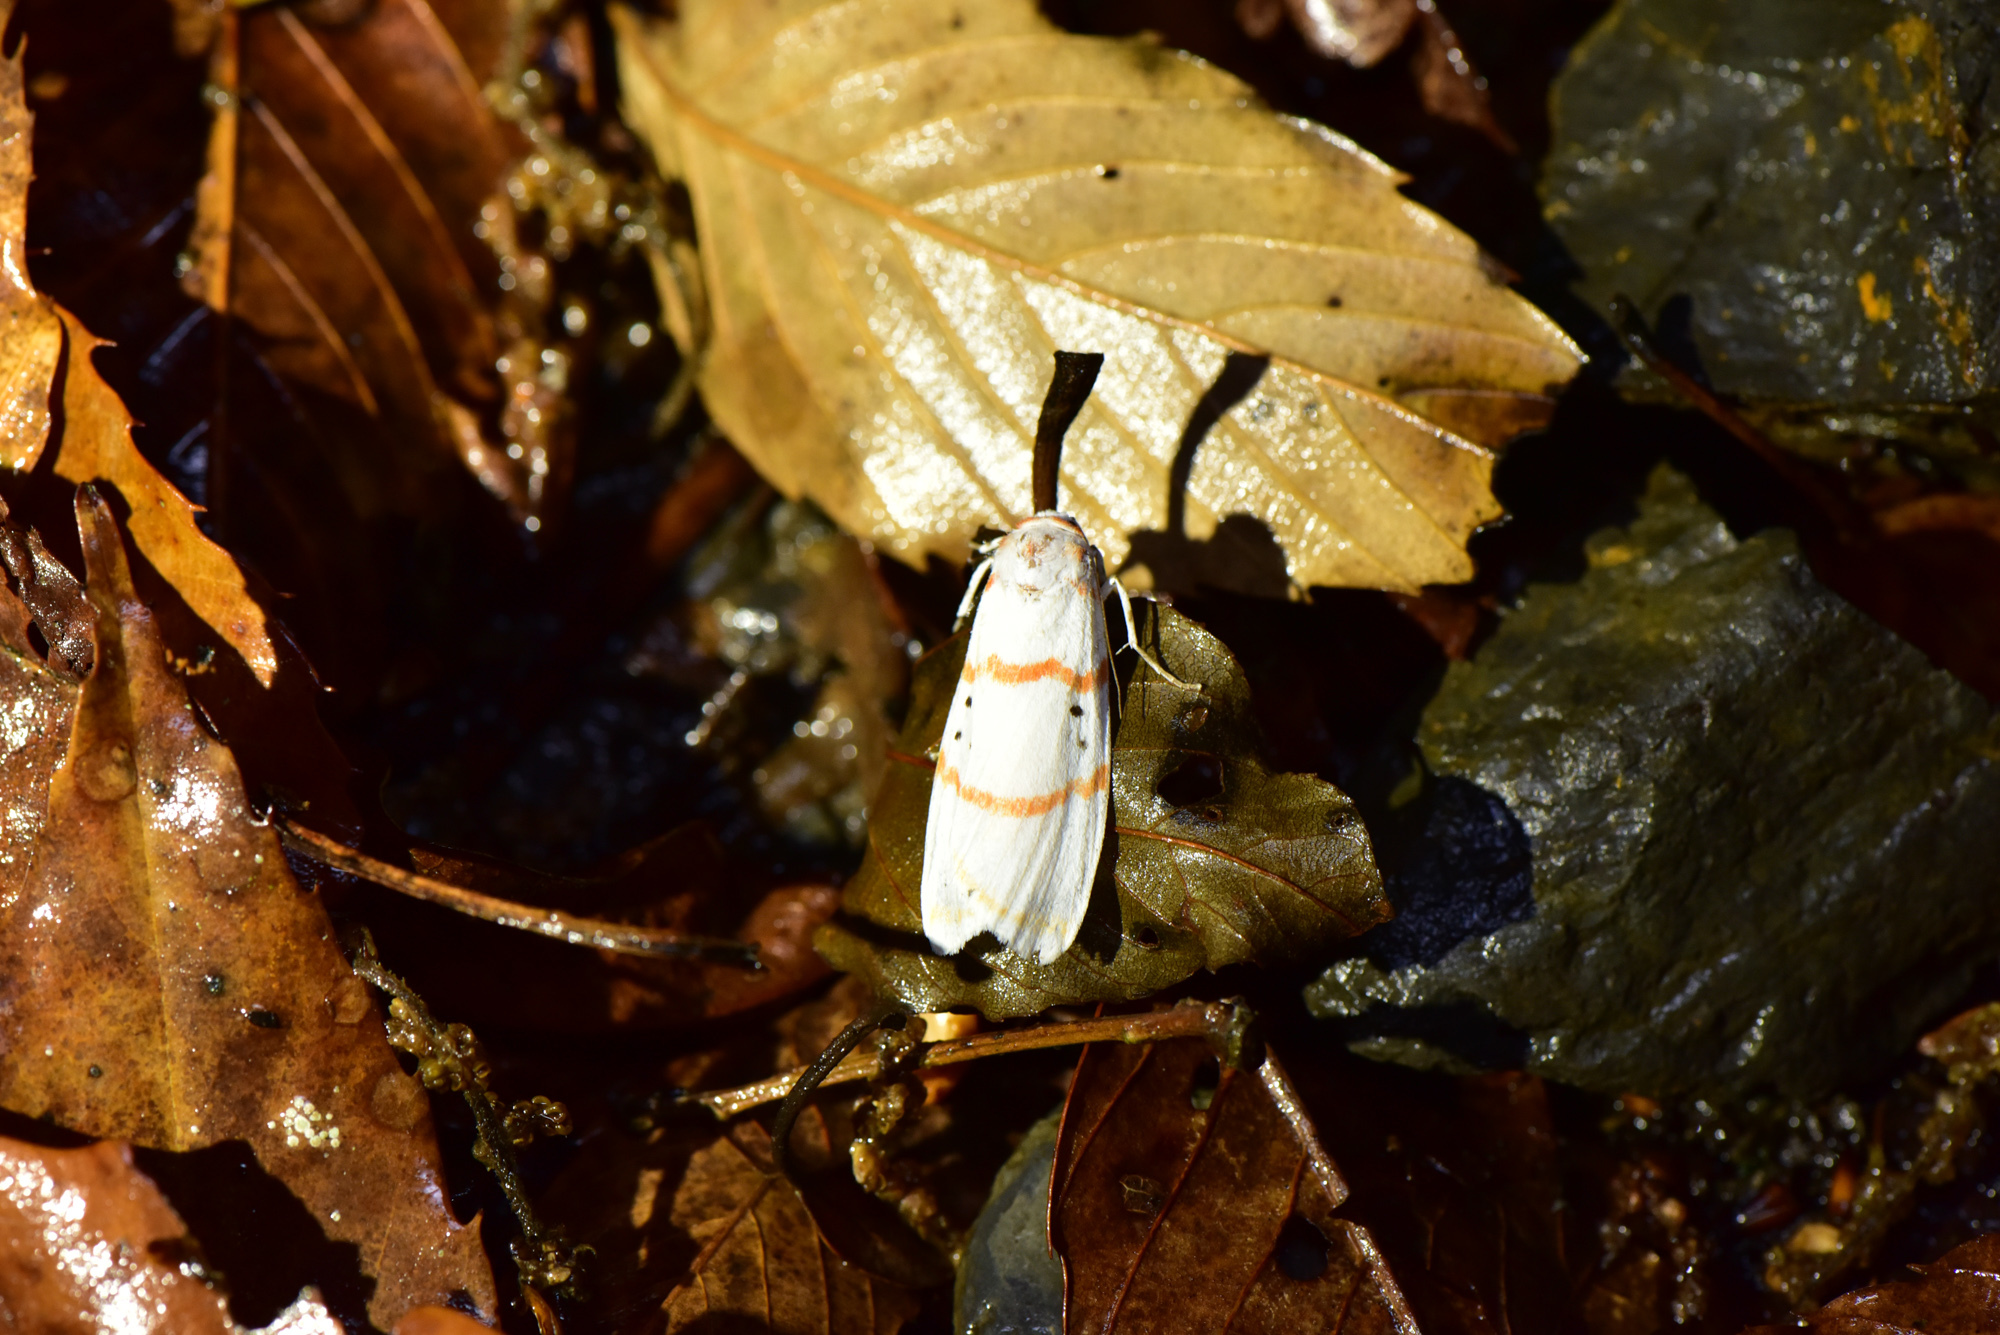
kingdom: Animalia
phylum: Arthropoda
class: Insecta
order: Lepidoptera
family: Erebidae
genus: Cyana
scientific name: Cyana subalba
